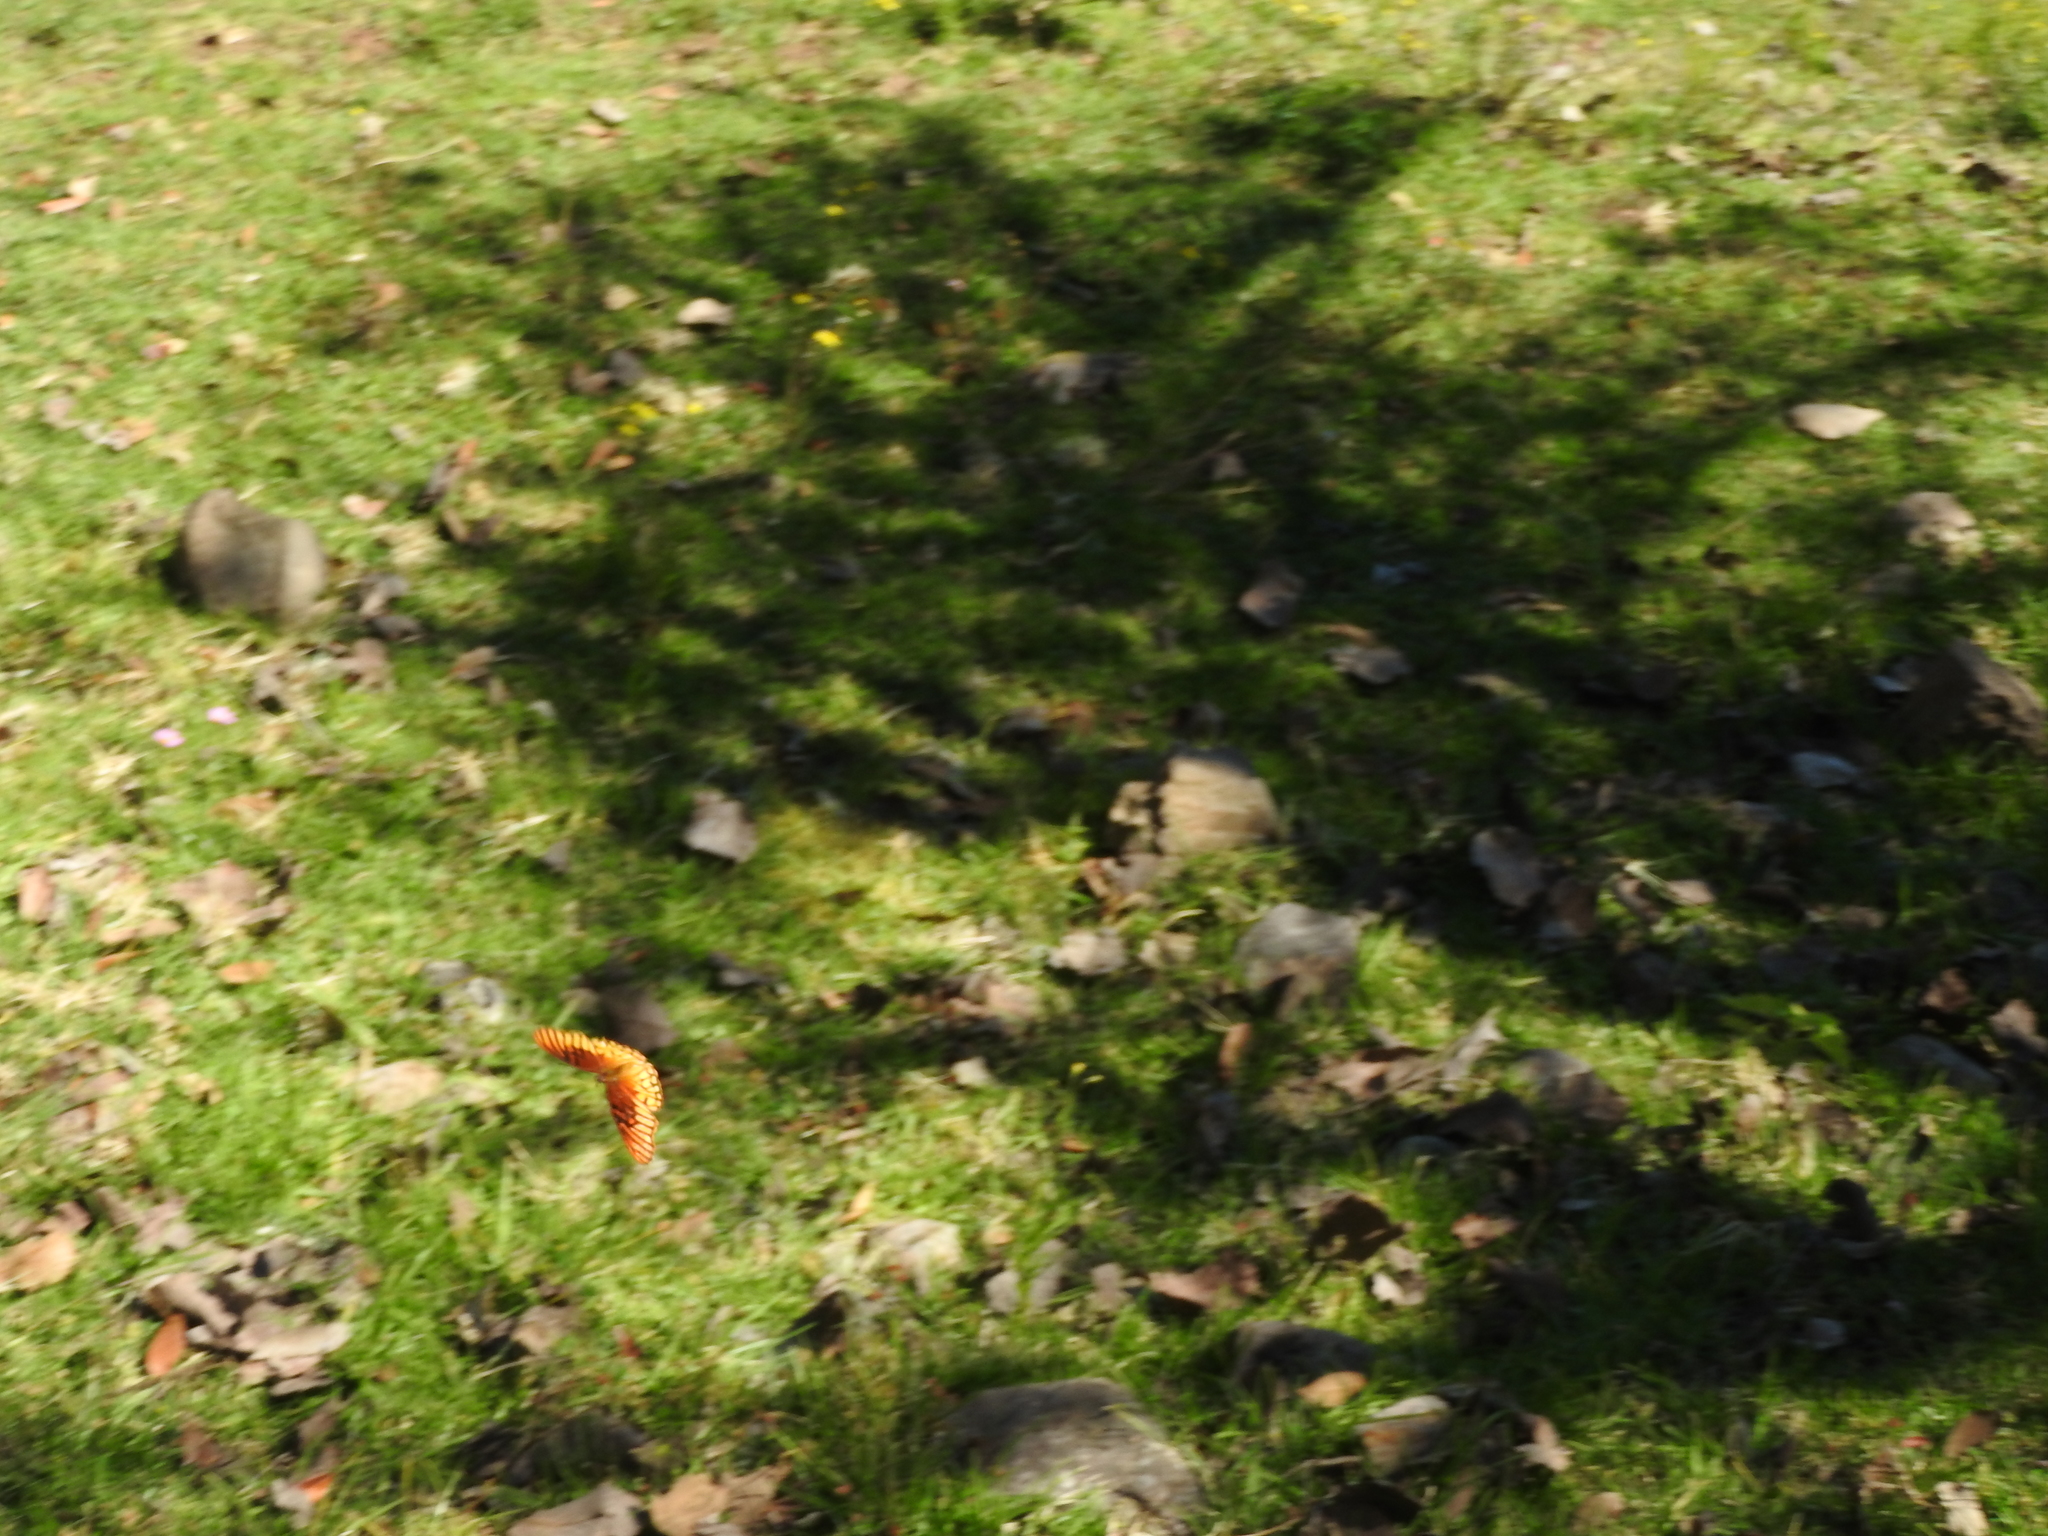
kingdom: Animalia
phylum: Arthropoda
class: Insecta
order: Lepidoptera
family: Nymphalidae
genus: Dione
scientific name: Dione moneta
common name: Mexican silverspot
